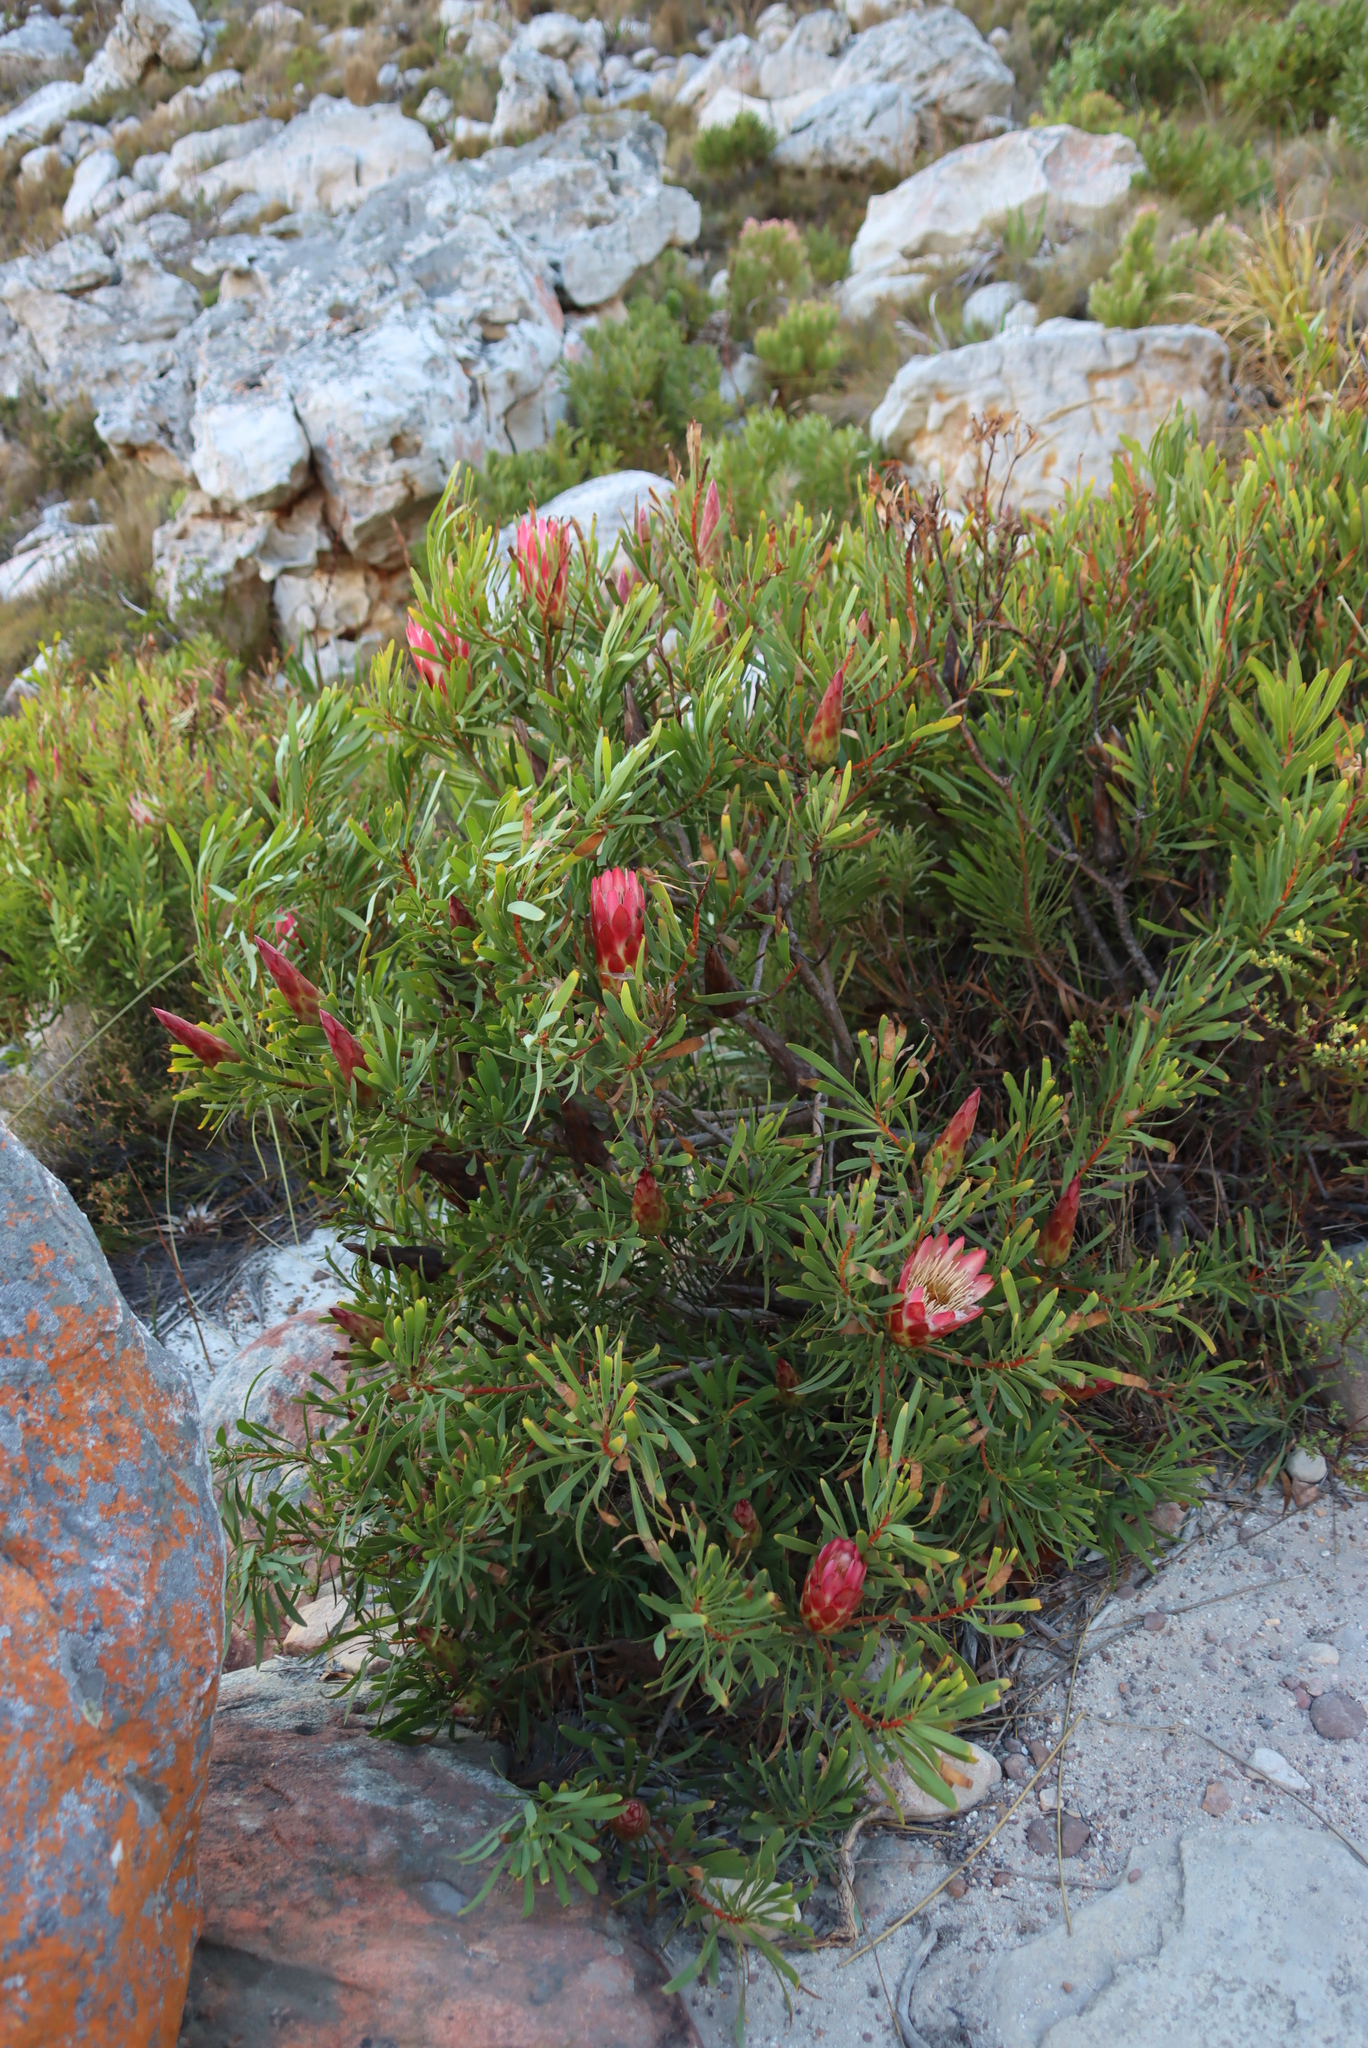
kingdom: Plantae
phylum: Tracheophyta
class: Magnoliopsida
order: Proteales
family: Proteaceae
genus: Protea
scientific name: Protea repens
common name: Sugarbush
